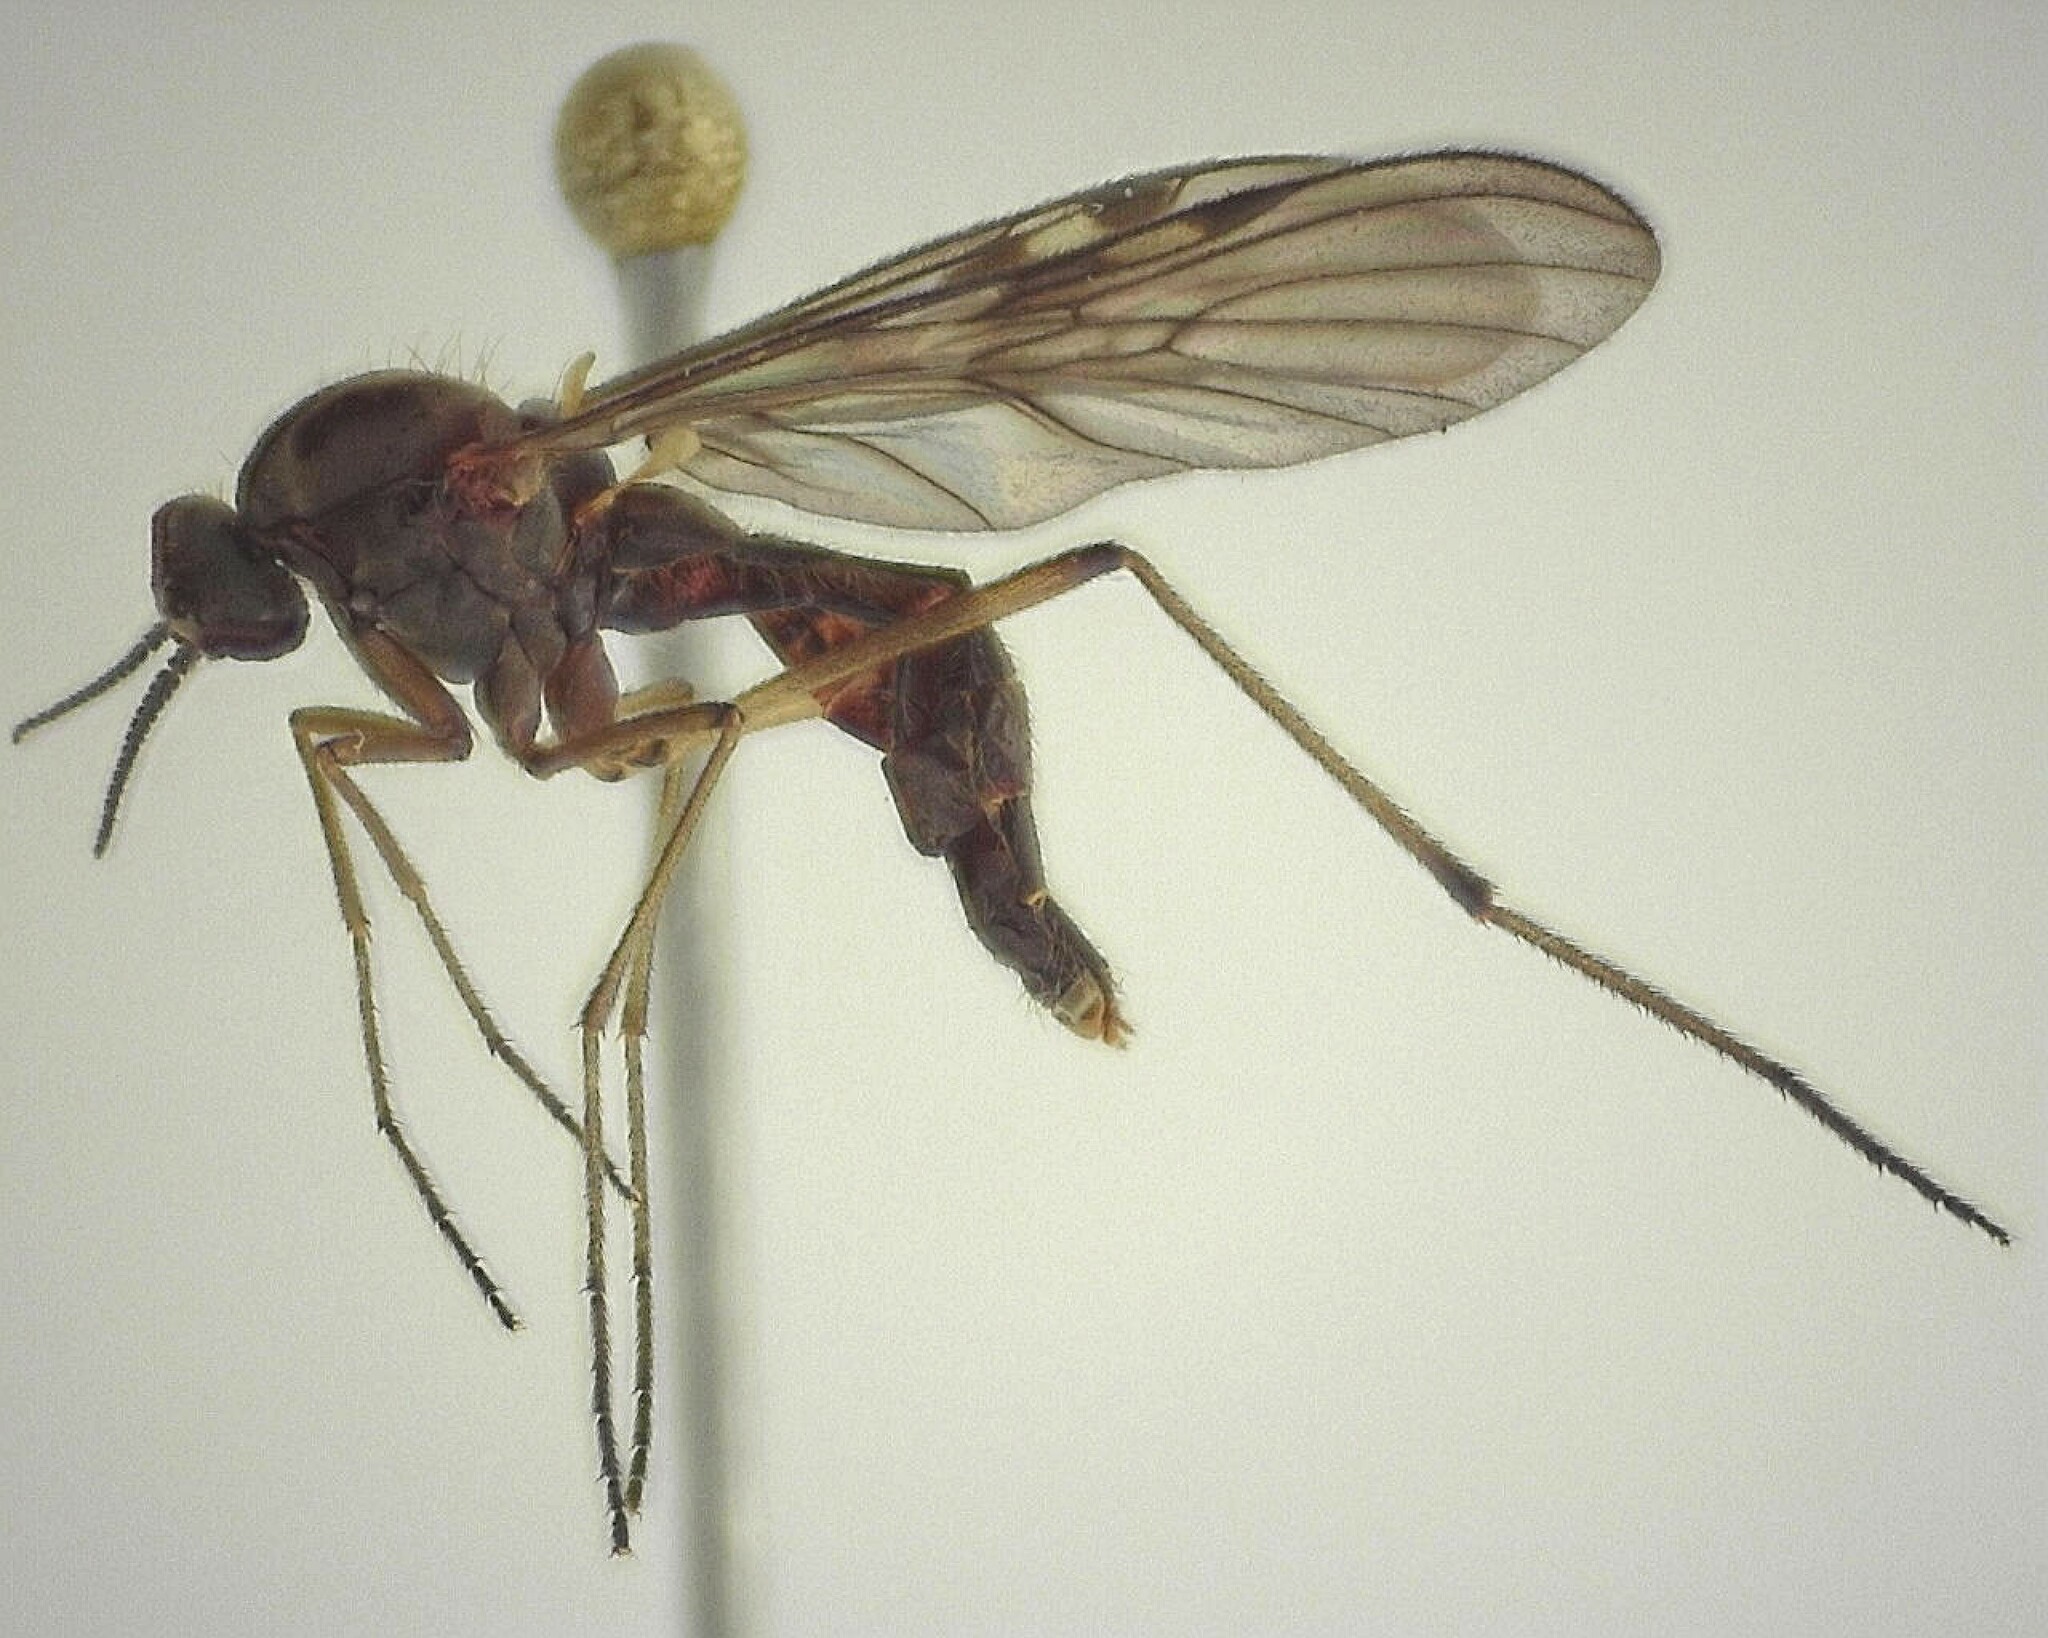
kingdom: Animalia
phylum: Arthropoda
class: Insecta
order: Diptera
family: Anisopodidae
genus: Sylvicola
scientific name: Sylvicola fuscatus
